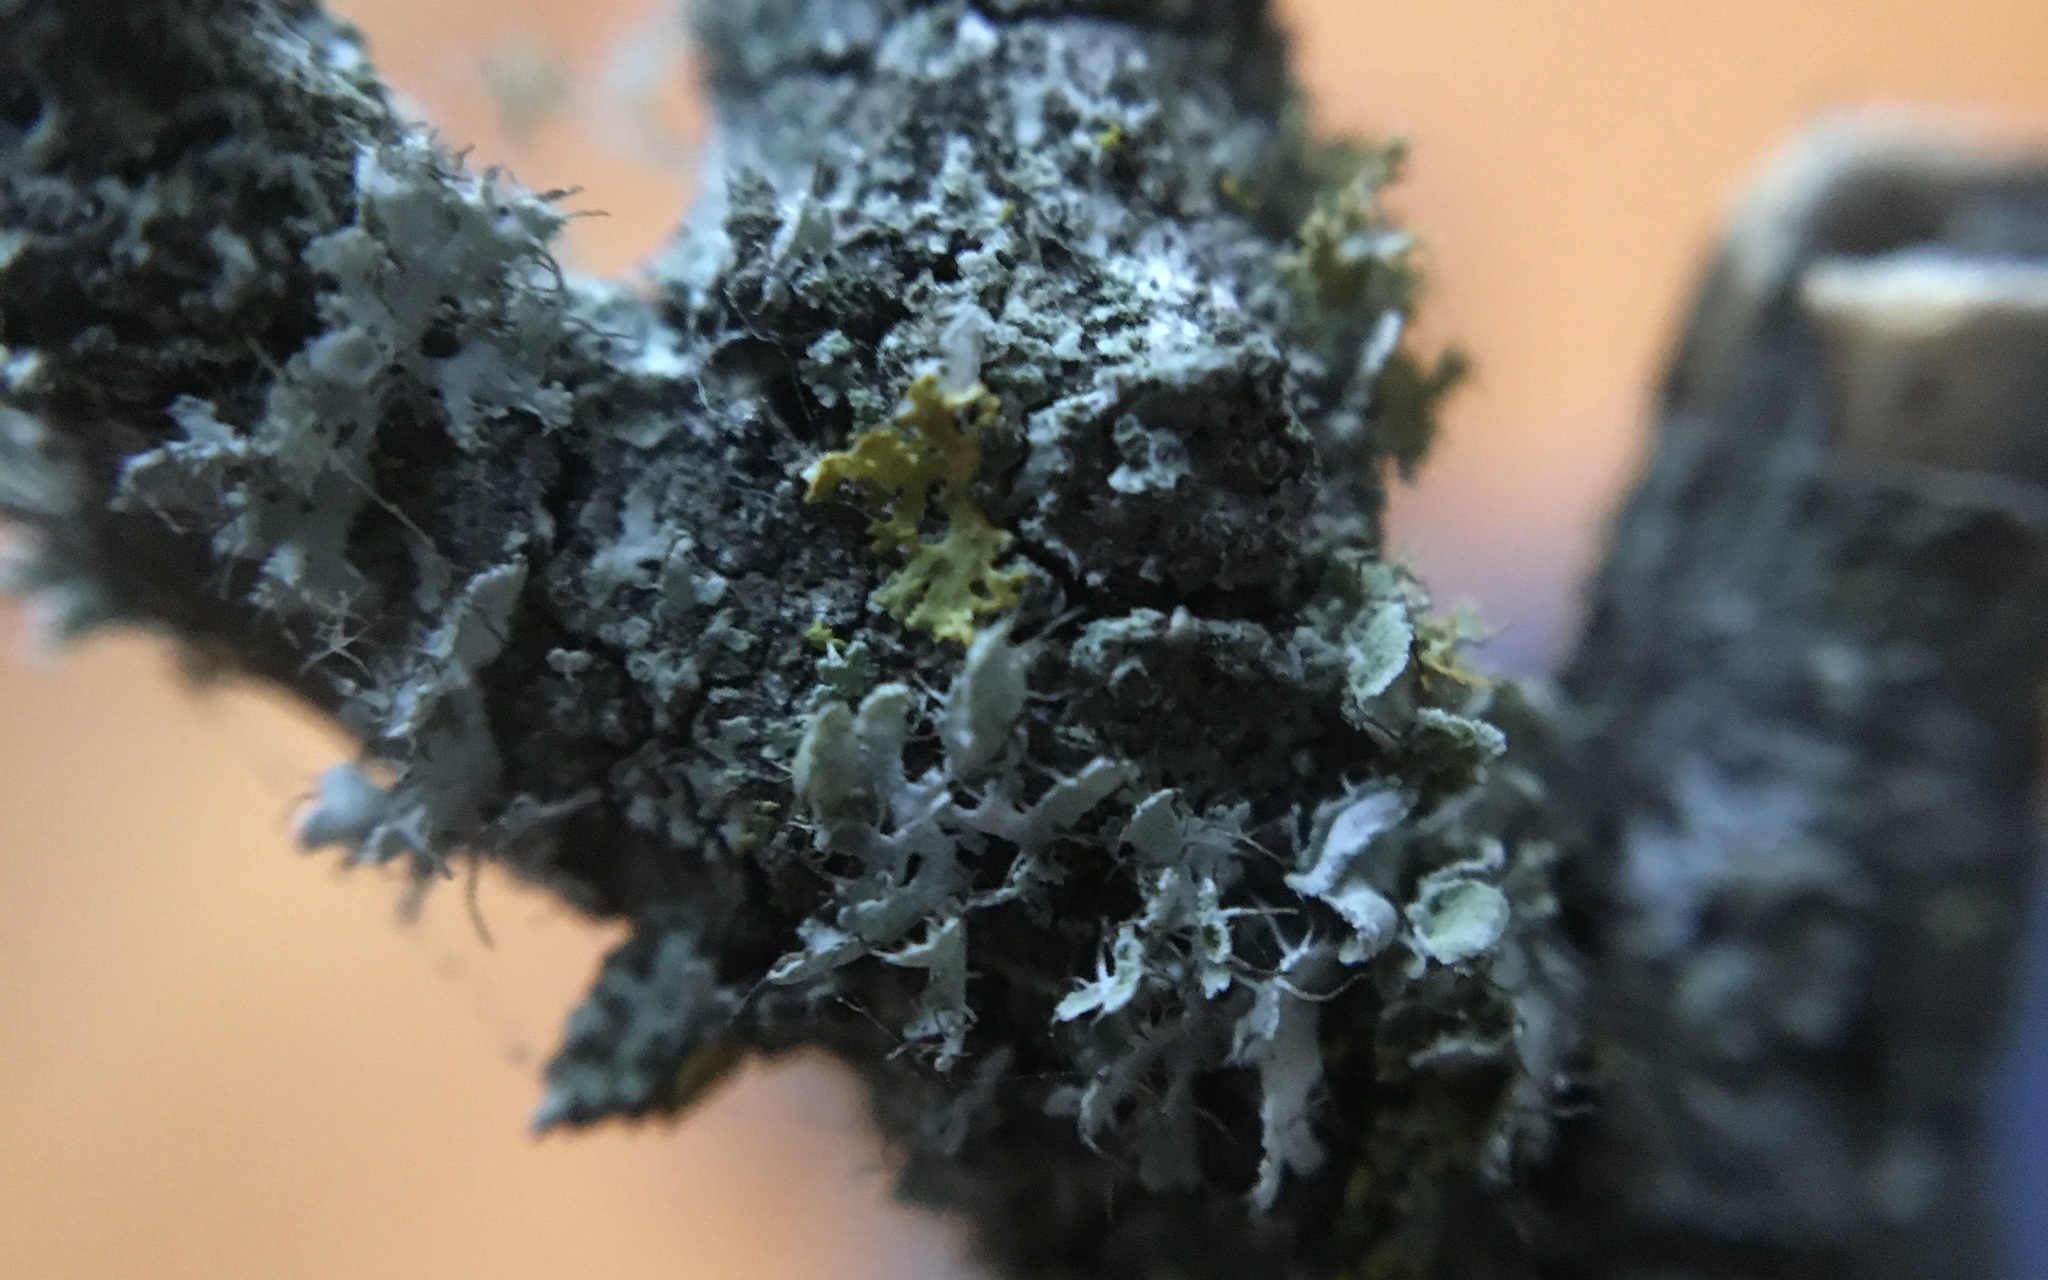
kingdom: Fungi
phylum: Ascomycota
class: Lecanoromycetes
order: Caliciales
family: Physciaceae
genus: Physcia
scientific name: Physcia adscendens
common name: Hooded rosette lichen
